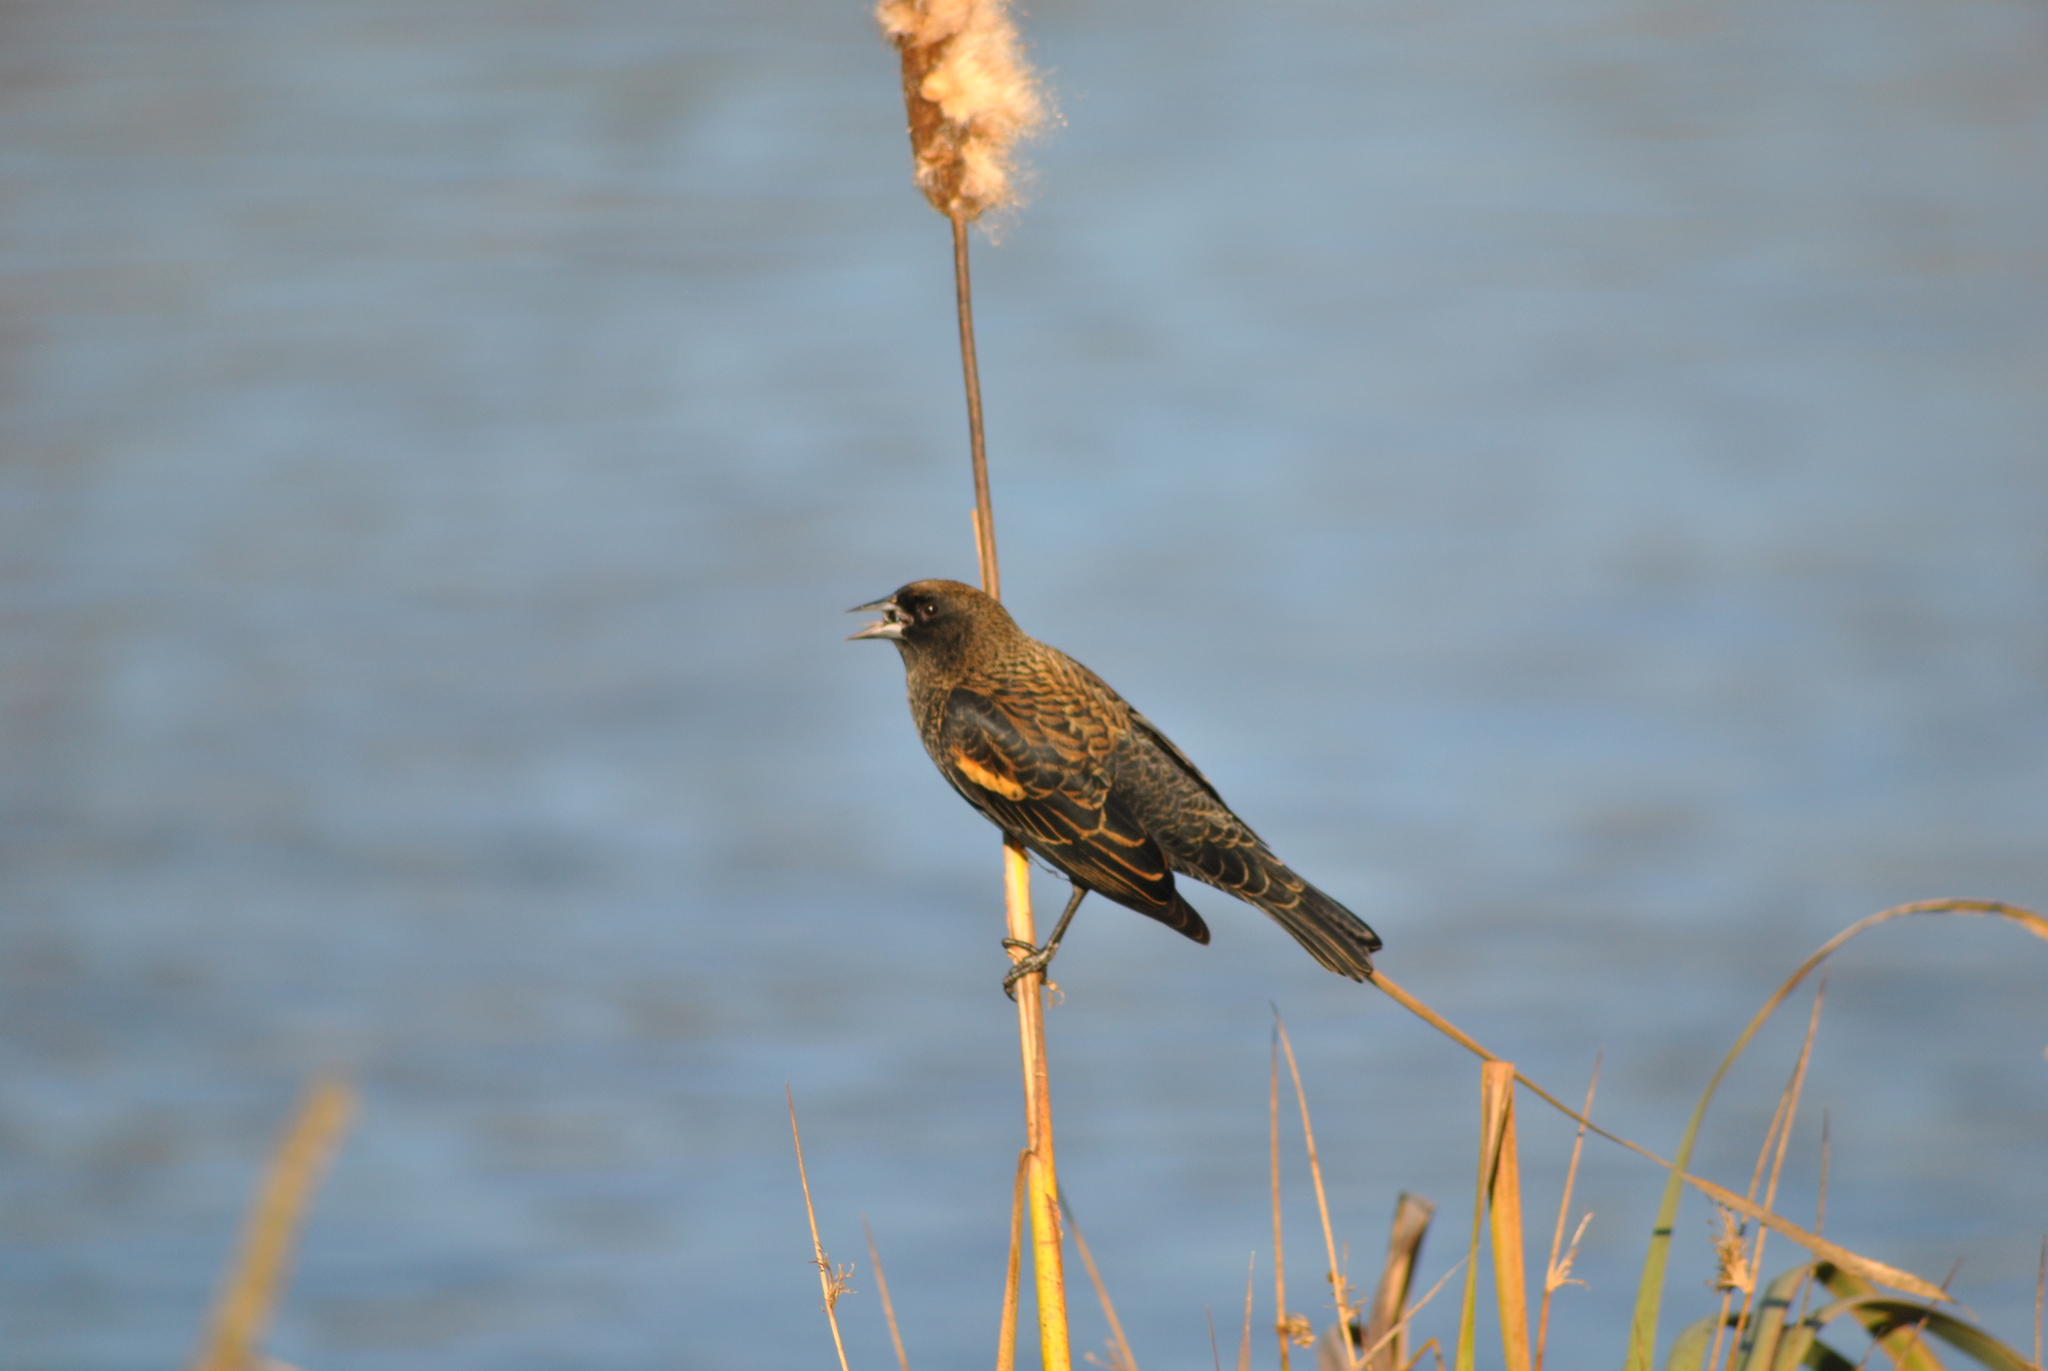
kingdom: Animalia
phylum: Chordata
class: Aves
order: Passeriformes
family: Icteridae
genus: Agelaius
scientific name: Agelaius phoeniceus
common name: Red-winged blackbird
